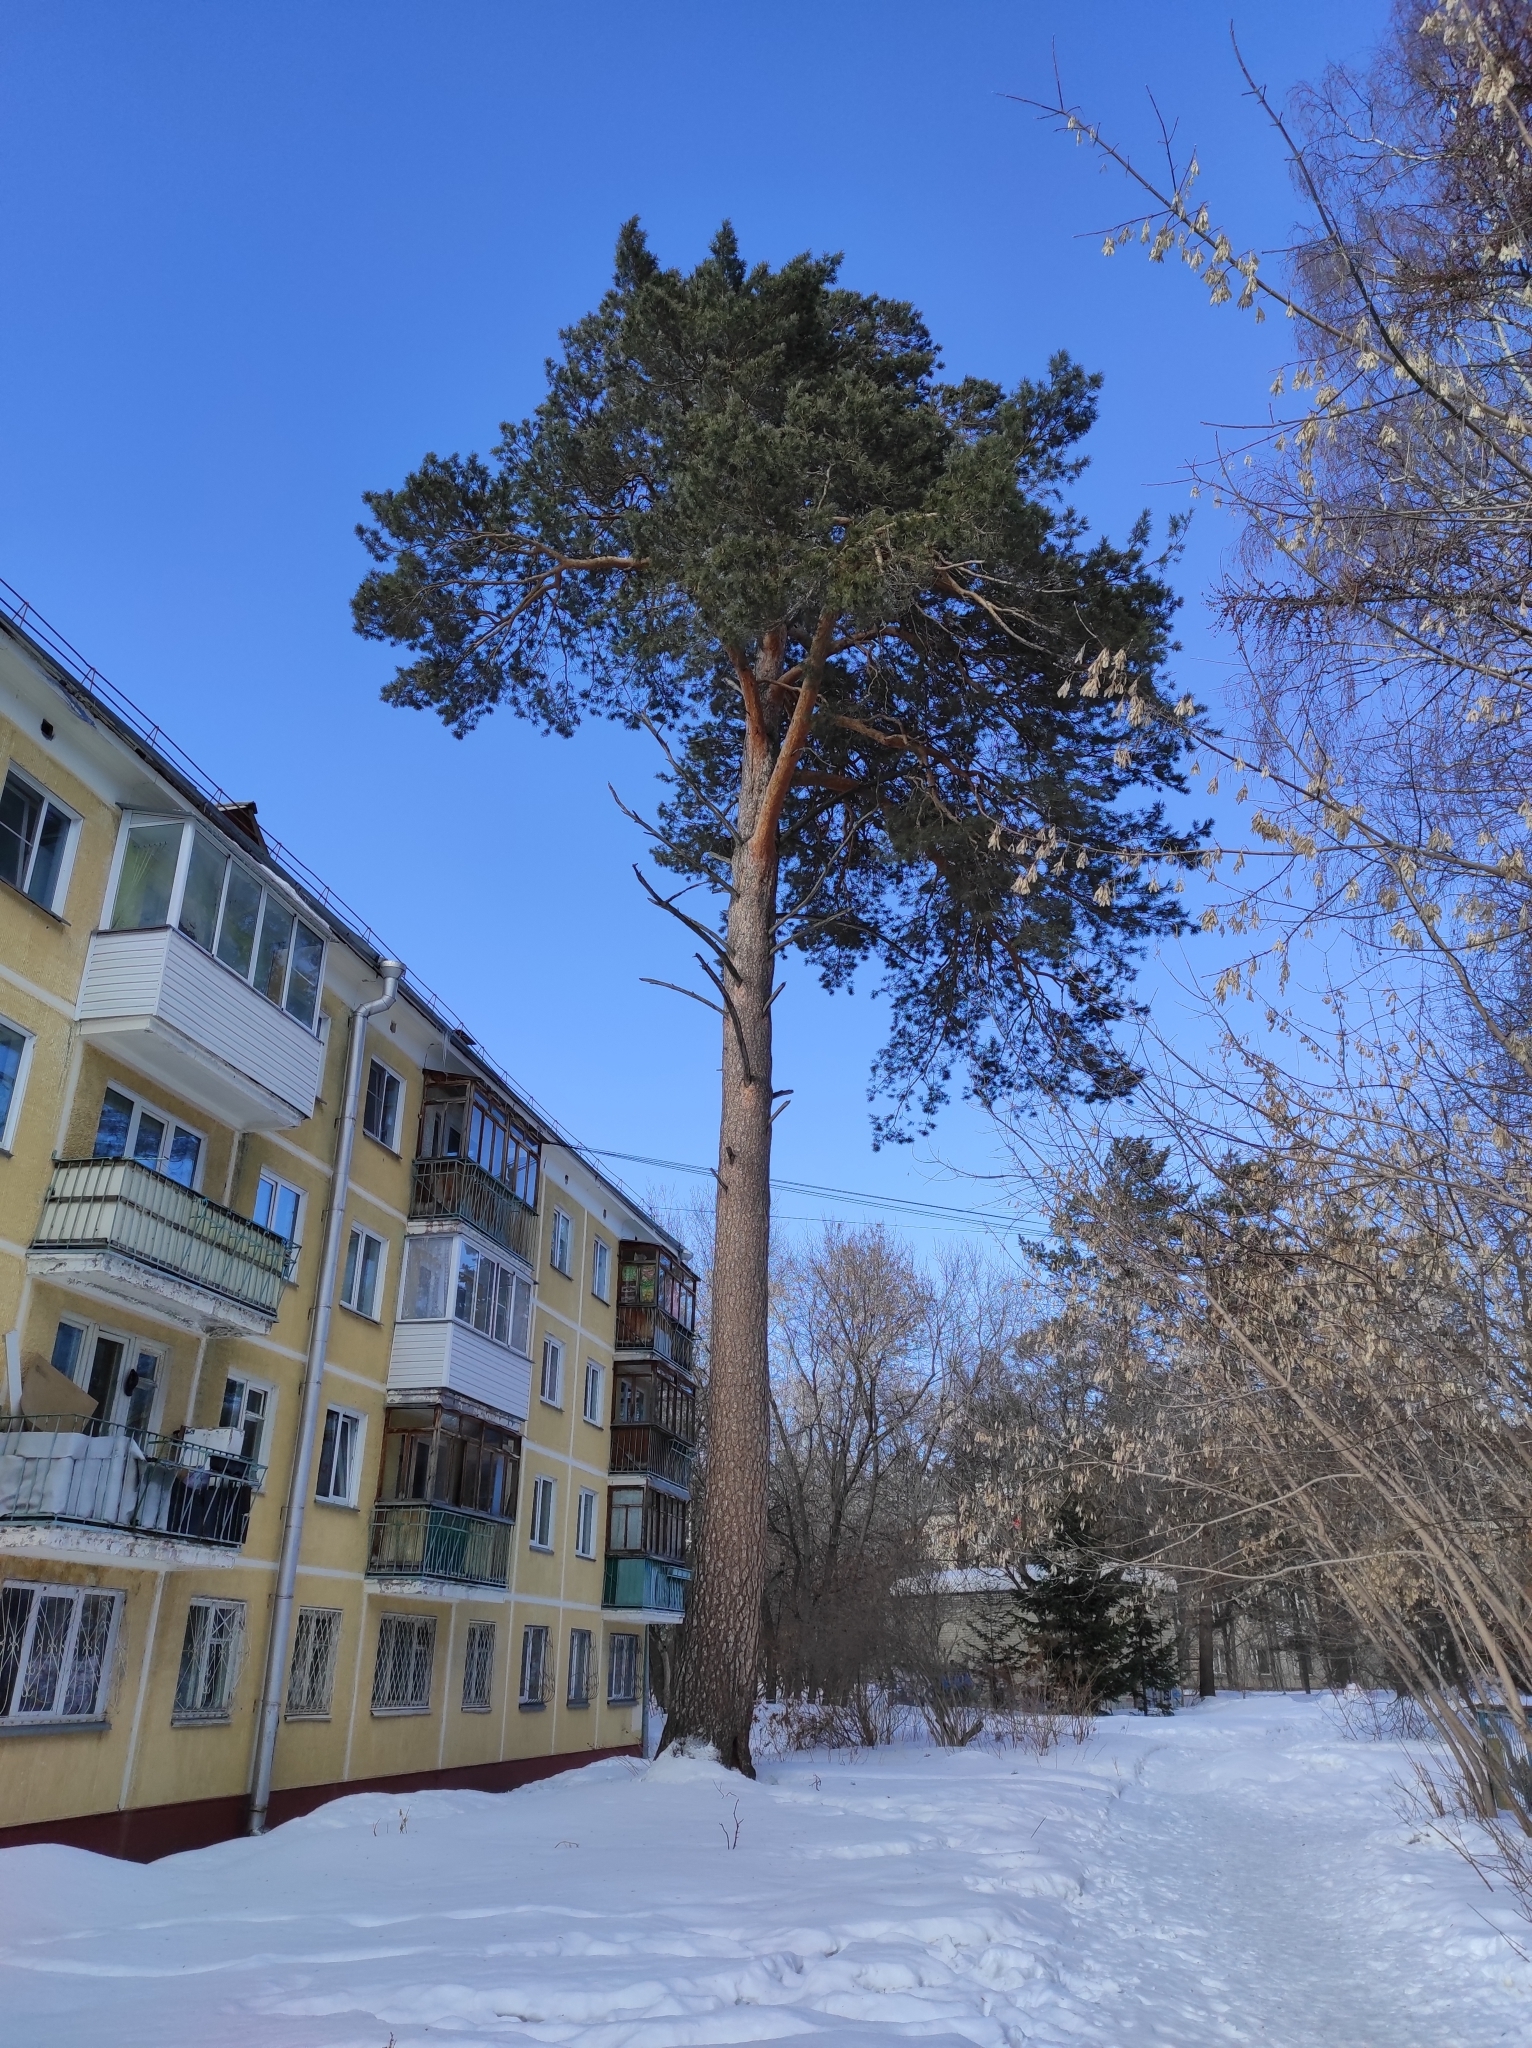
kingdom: Plantae
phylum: Tracheophyta
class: Pinopsida
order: Pinales
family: Pinaceae
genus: Pinus
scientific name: Pinus sylvestris
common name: Scots pine
